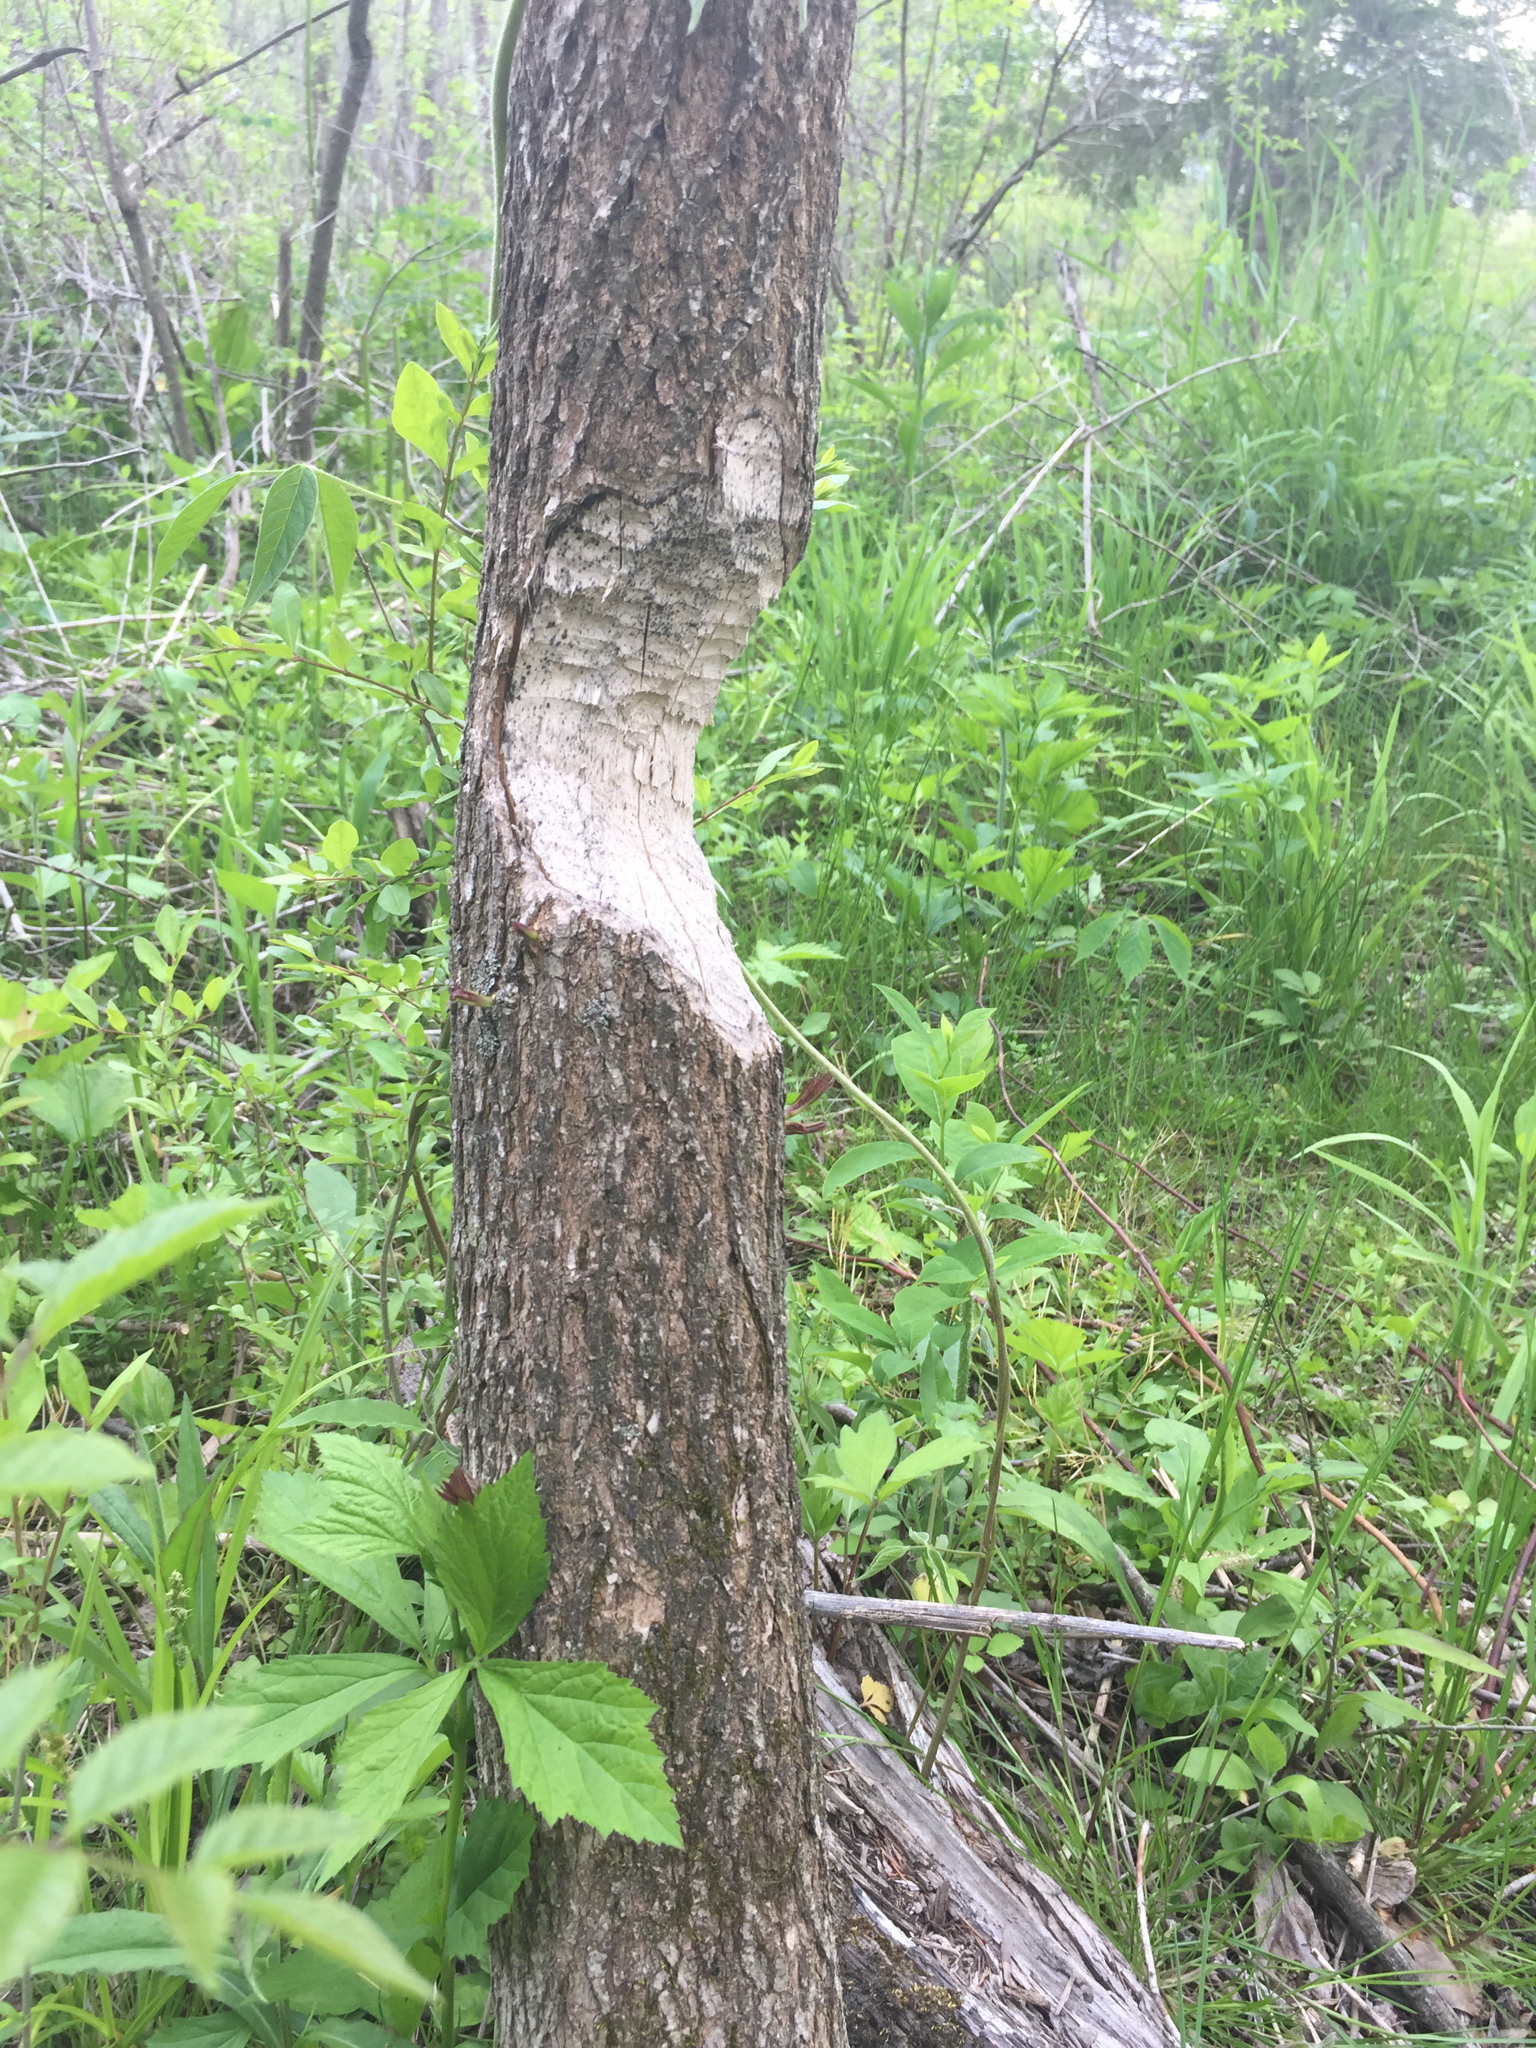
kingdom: Animalia
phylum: Chordata
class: Mammalia
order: Rodentia
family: Castoridae
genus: Castor
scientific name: Castor canadensis
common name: American beaver
